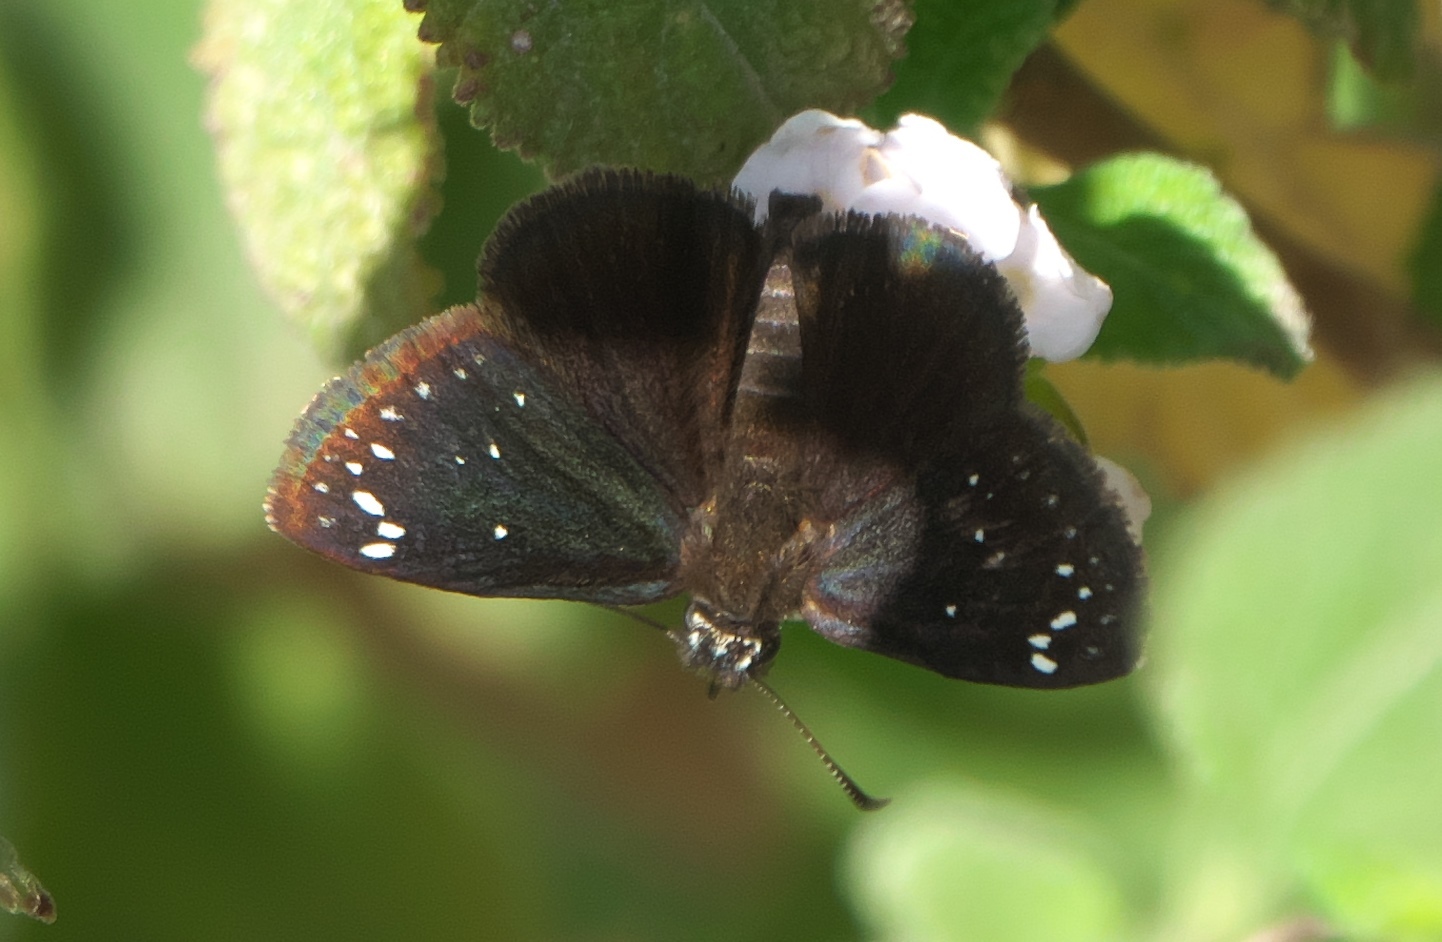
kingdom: Animalia
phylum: Arthropoda
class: Insecta
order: Lepidoptera
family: Hesperiidae
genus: Pholisora
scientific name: Pholisora catullus
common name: Common sootywing
